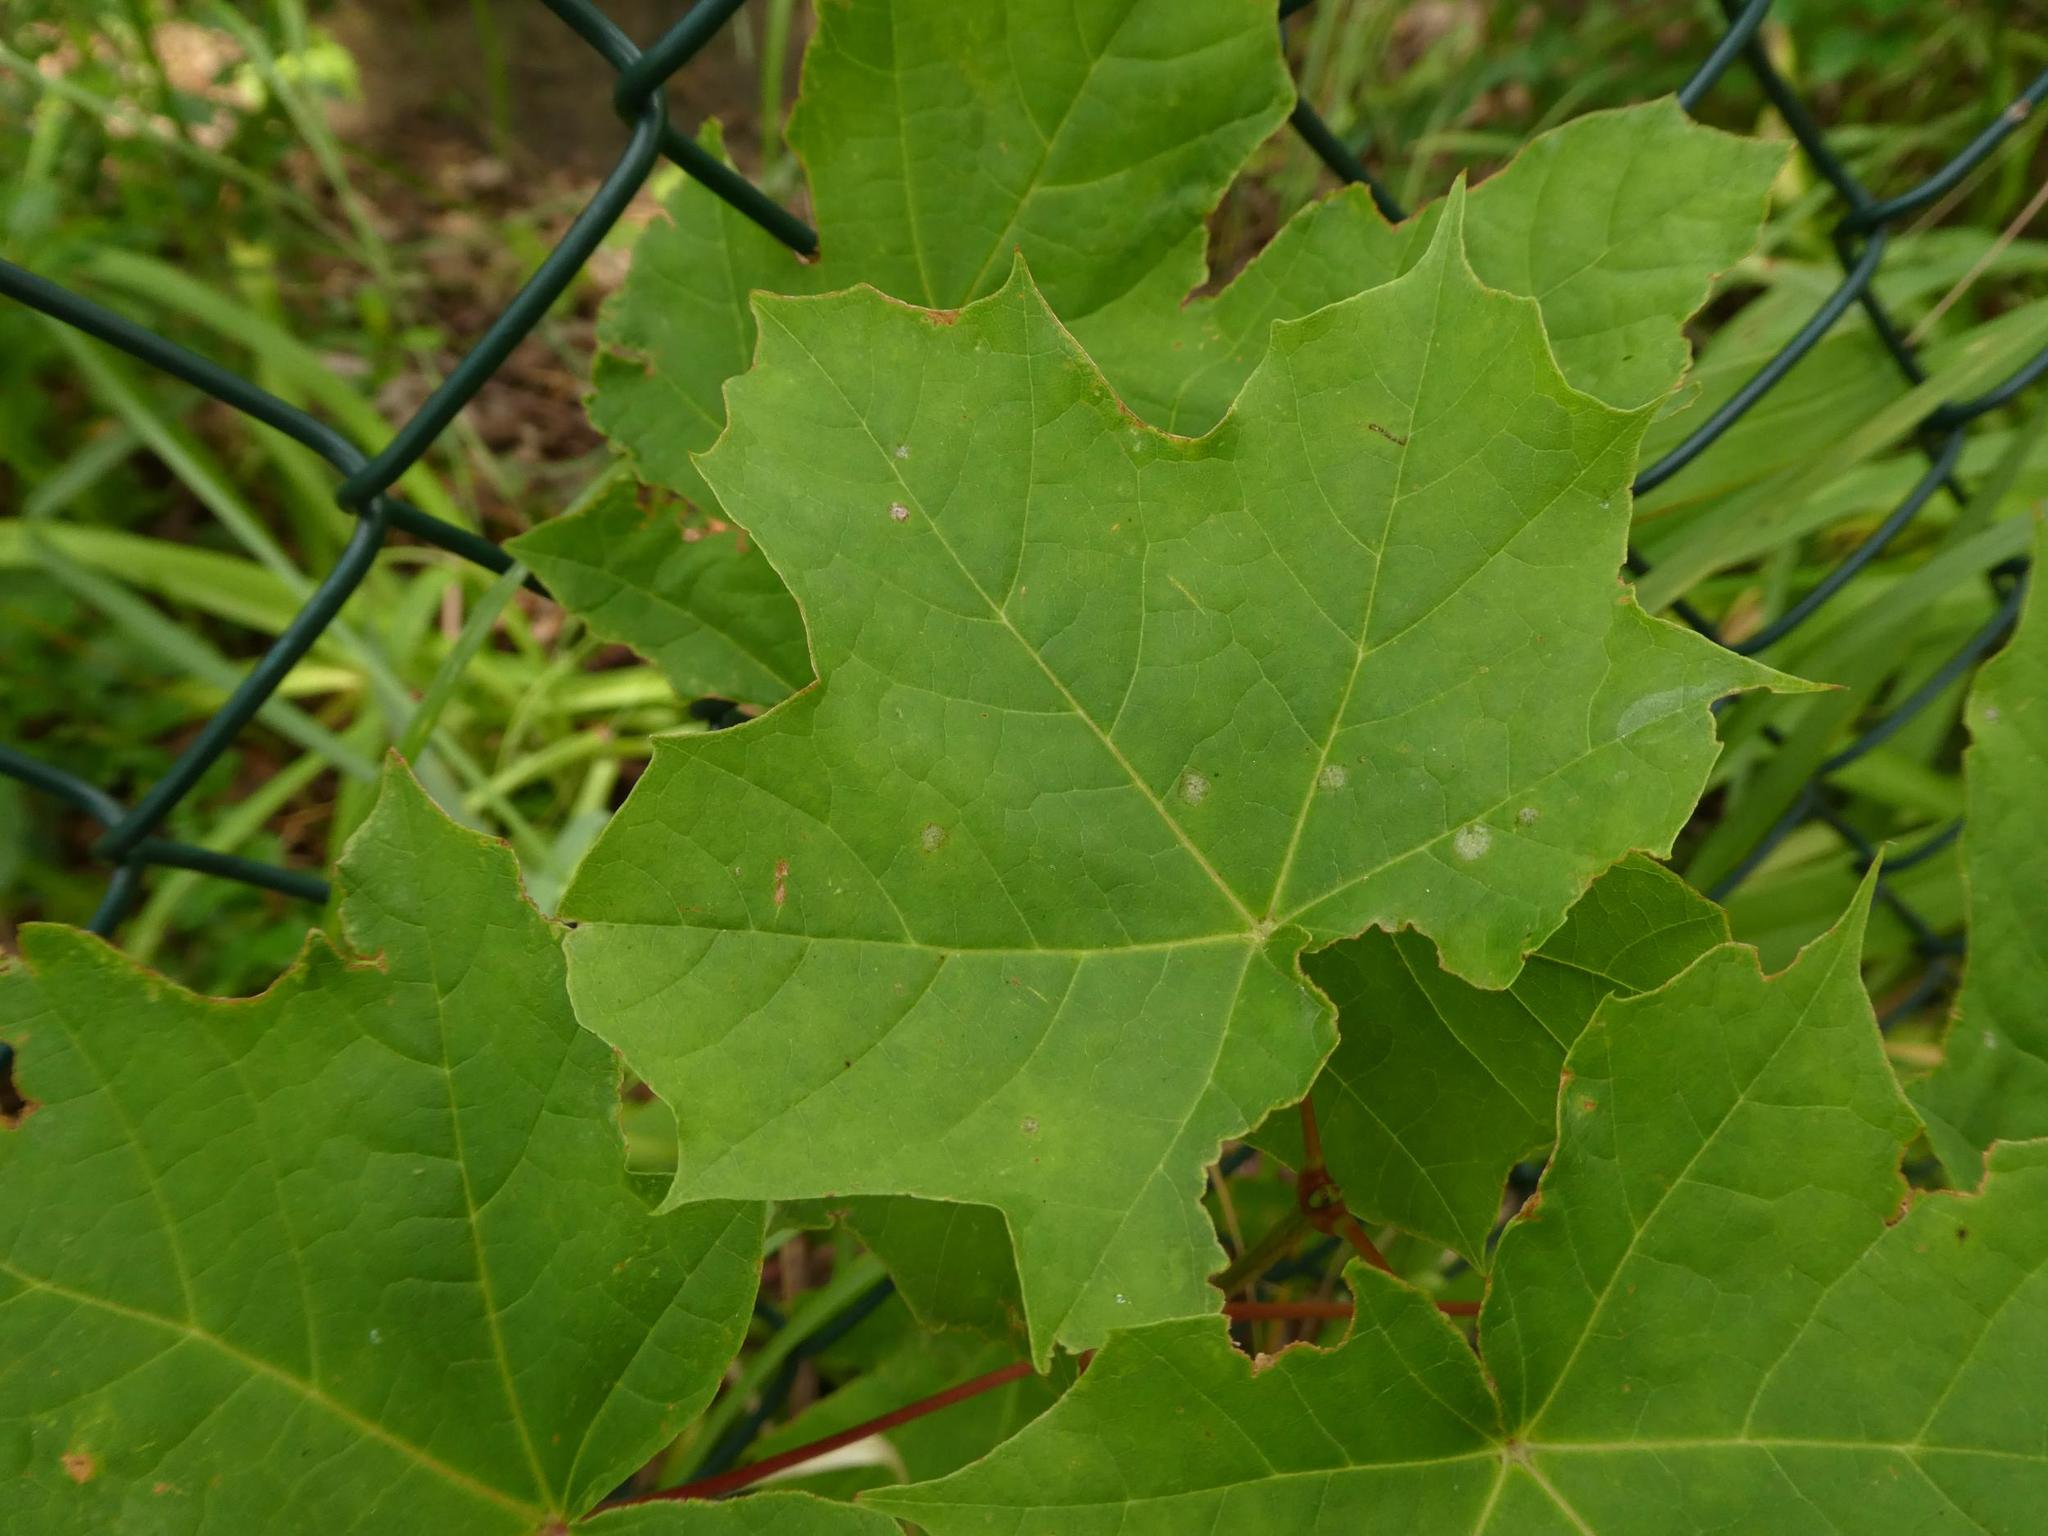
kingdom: Plantae
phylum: Tracheophyta
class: Magnoliopsida
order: Sapindales
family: Sapindaceae
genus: Acer
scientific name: Acer platanoides
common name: Norway maple
